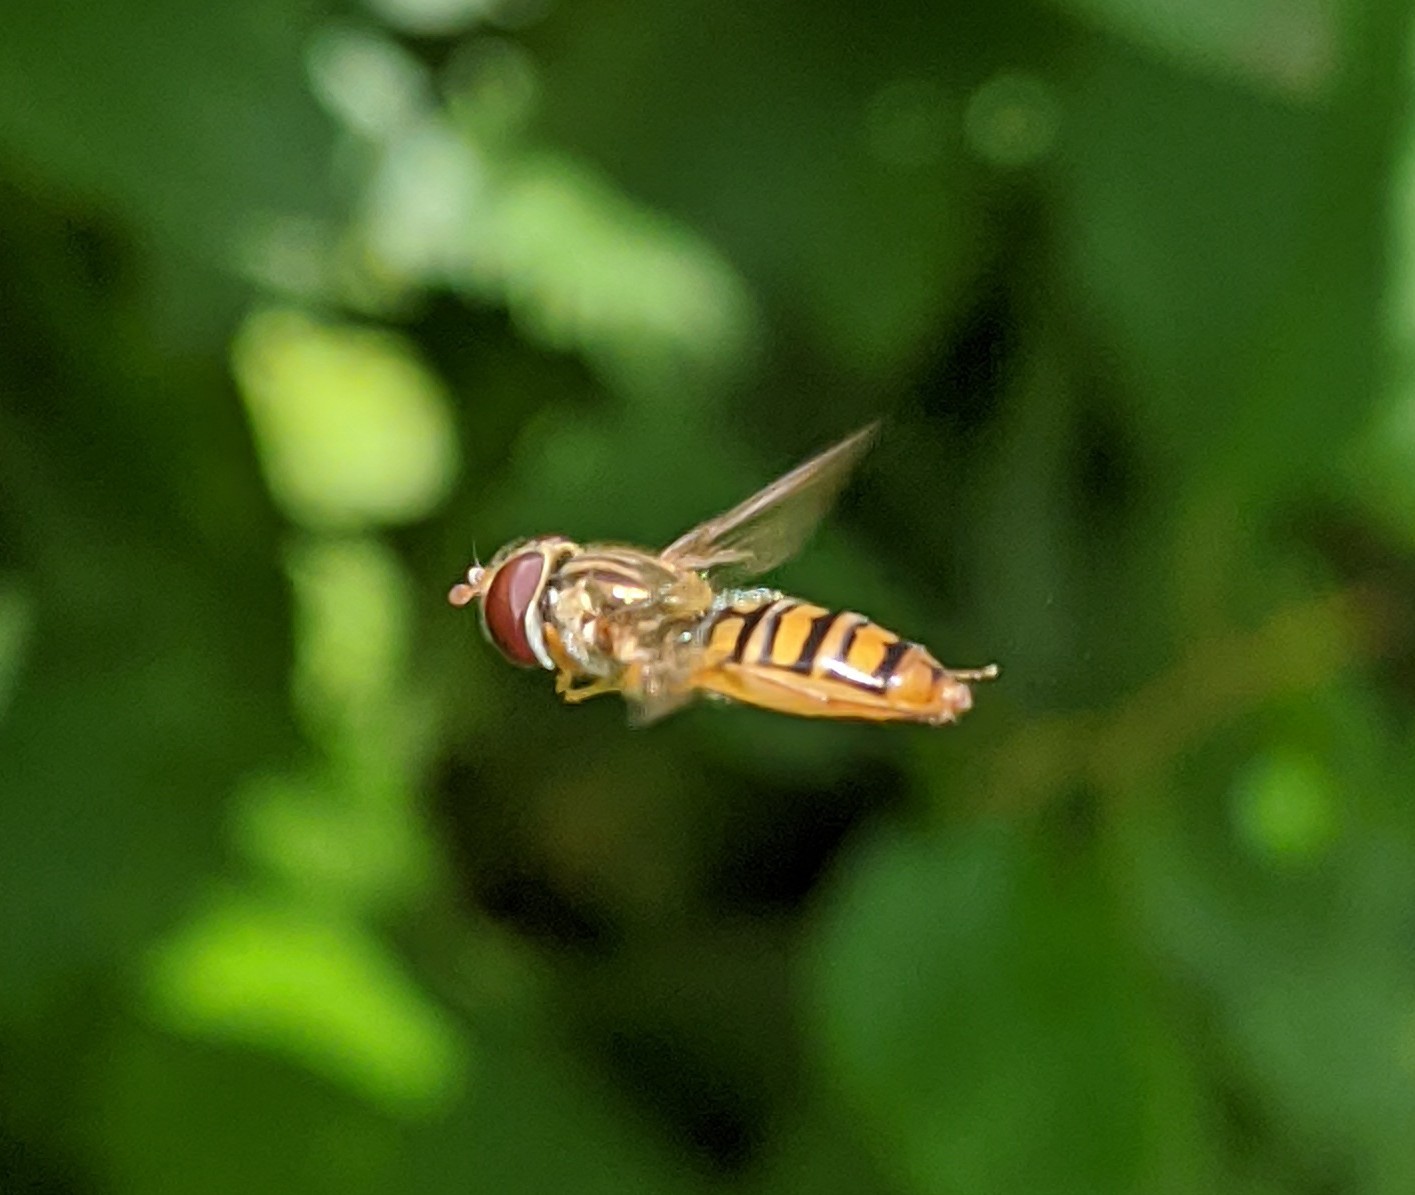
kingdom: Animalia
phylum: Arthropoda
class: Insecta
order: Diptera
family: Syrphidae
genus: Episyrphus
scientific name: Episyrphus balteatus
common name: Marmalade hoverfly
